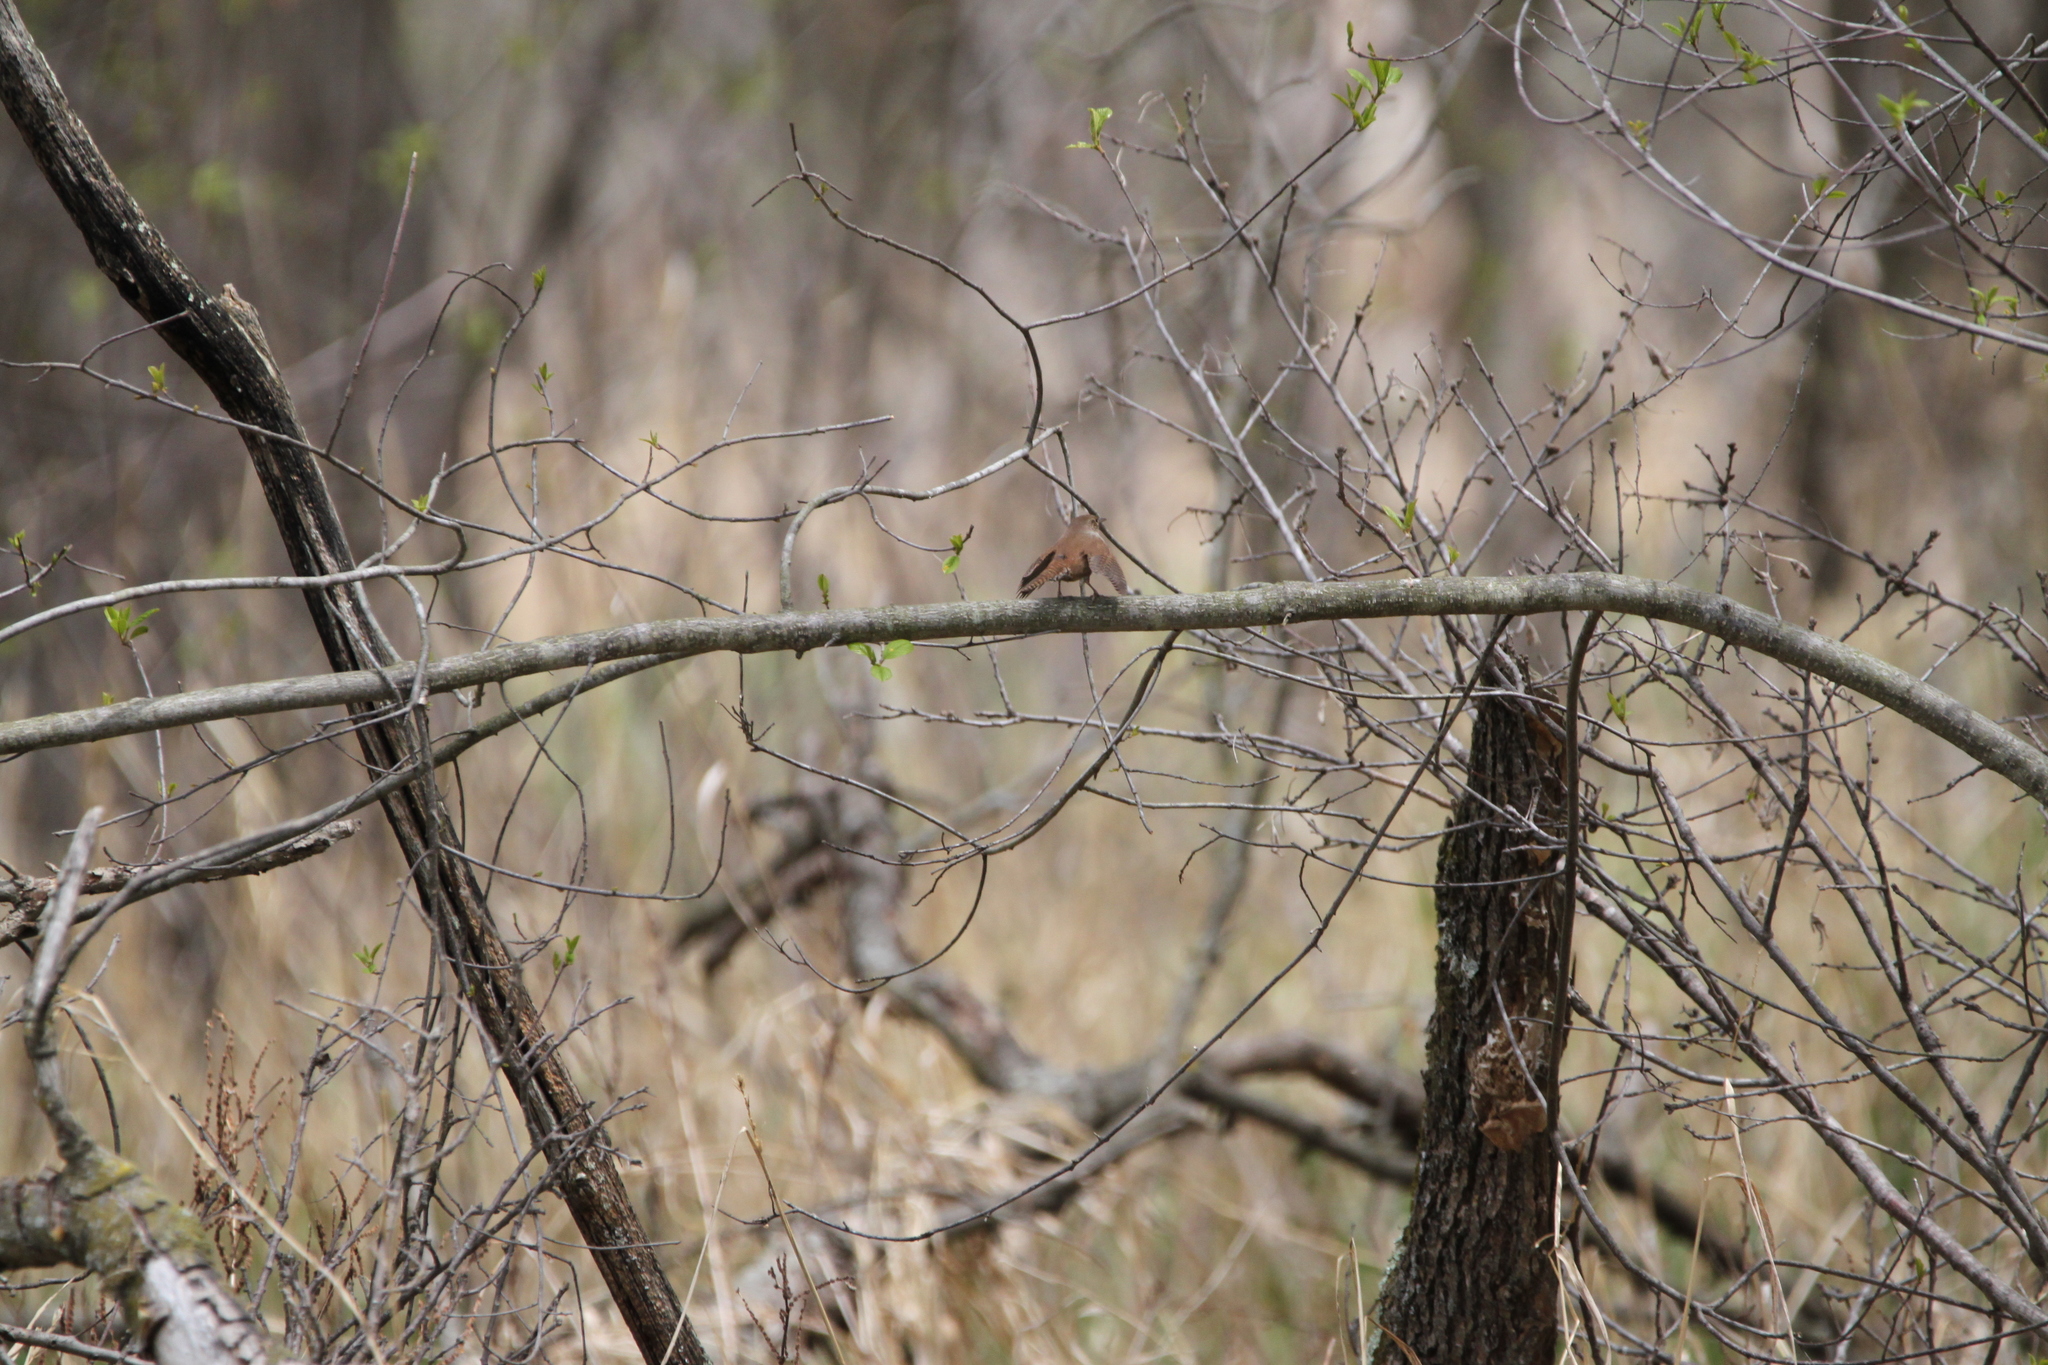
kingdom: Animalia
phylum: Chordata
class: Aves
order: Passeriformes
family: Troglodytidae
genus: Troglodytes
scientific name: Troglodytes aedon
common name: House wren
